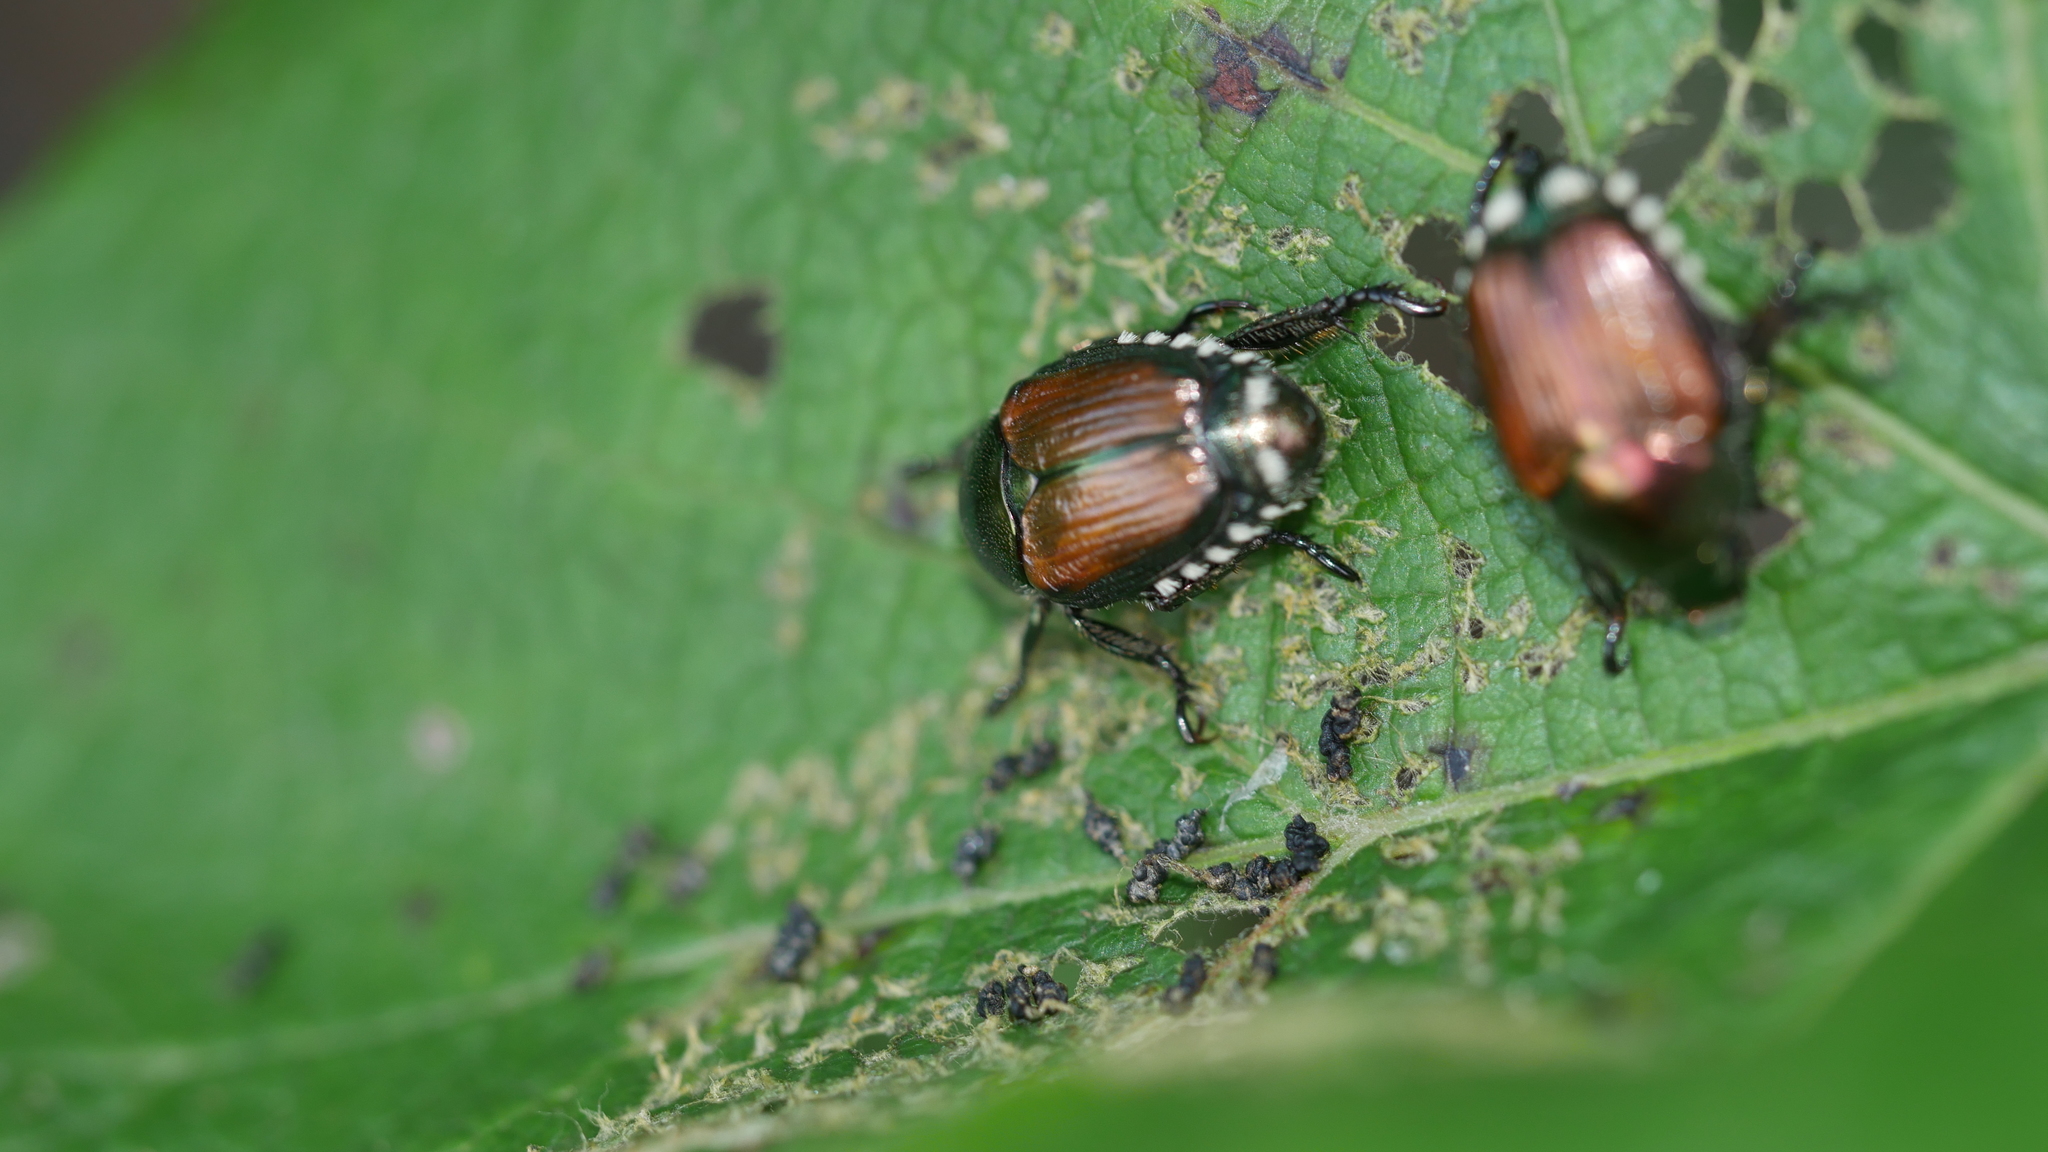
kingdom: Animalia
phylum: Arthropoda
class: Insecta
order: Coleoptera
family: Scarabaeidae
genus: Popillia
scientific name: Popillia japonica
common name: Japanese beetle
